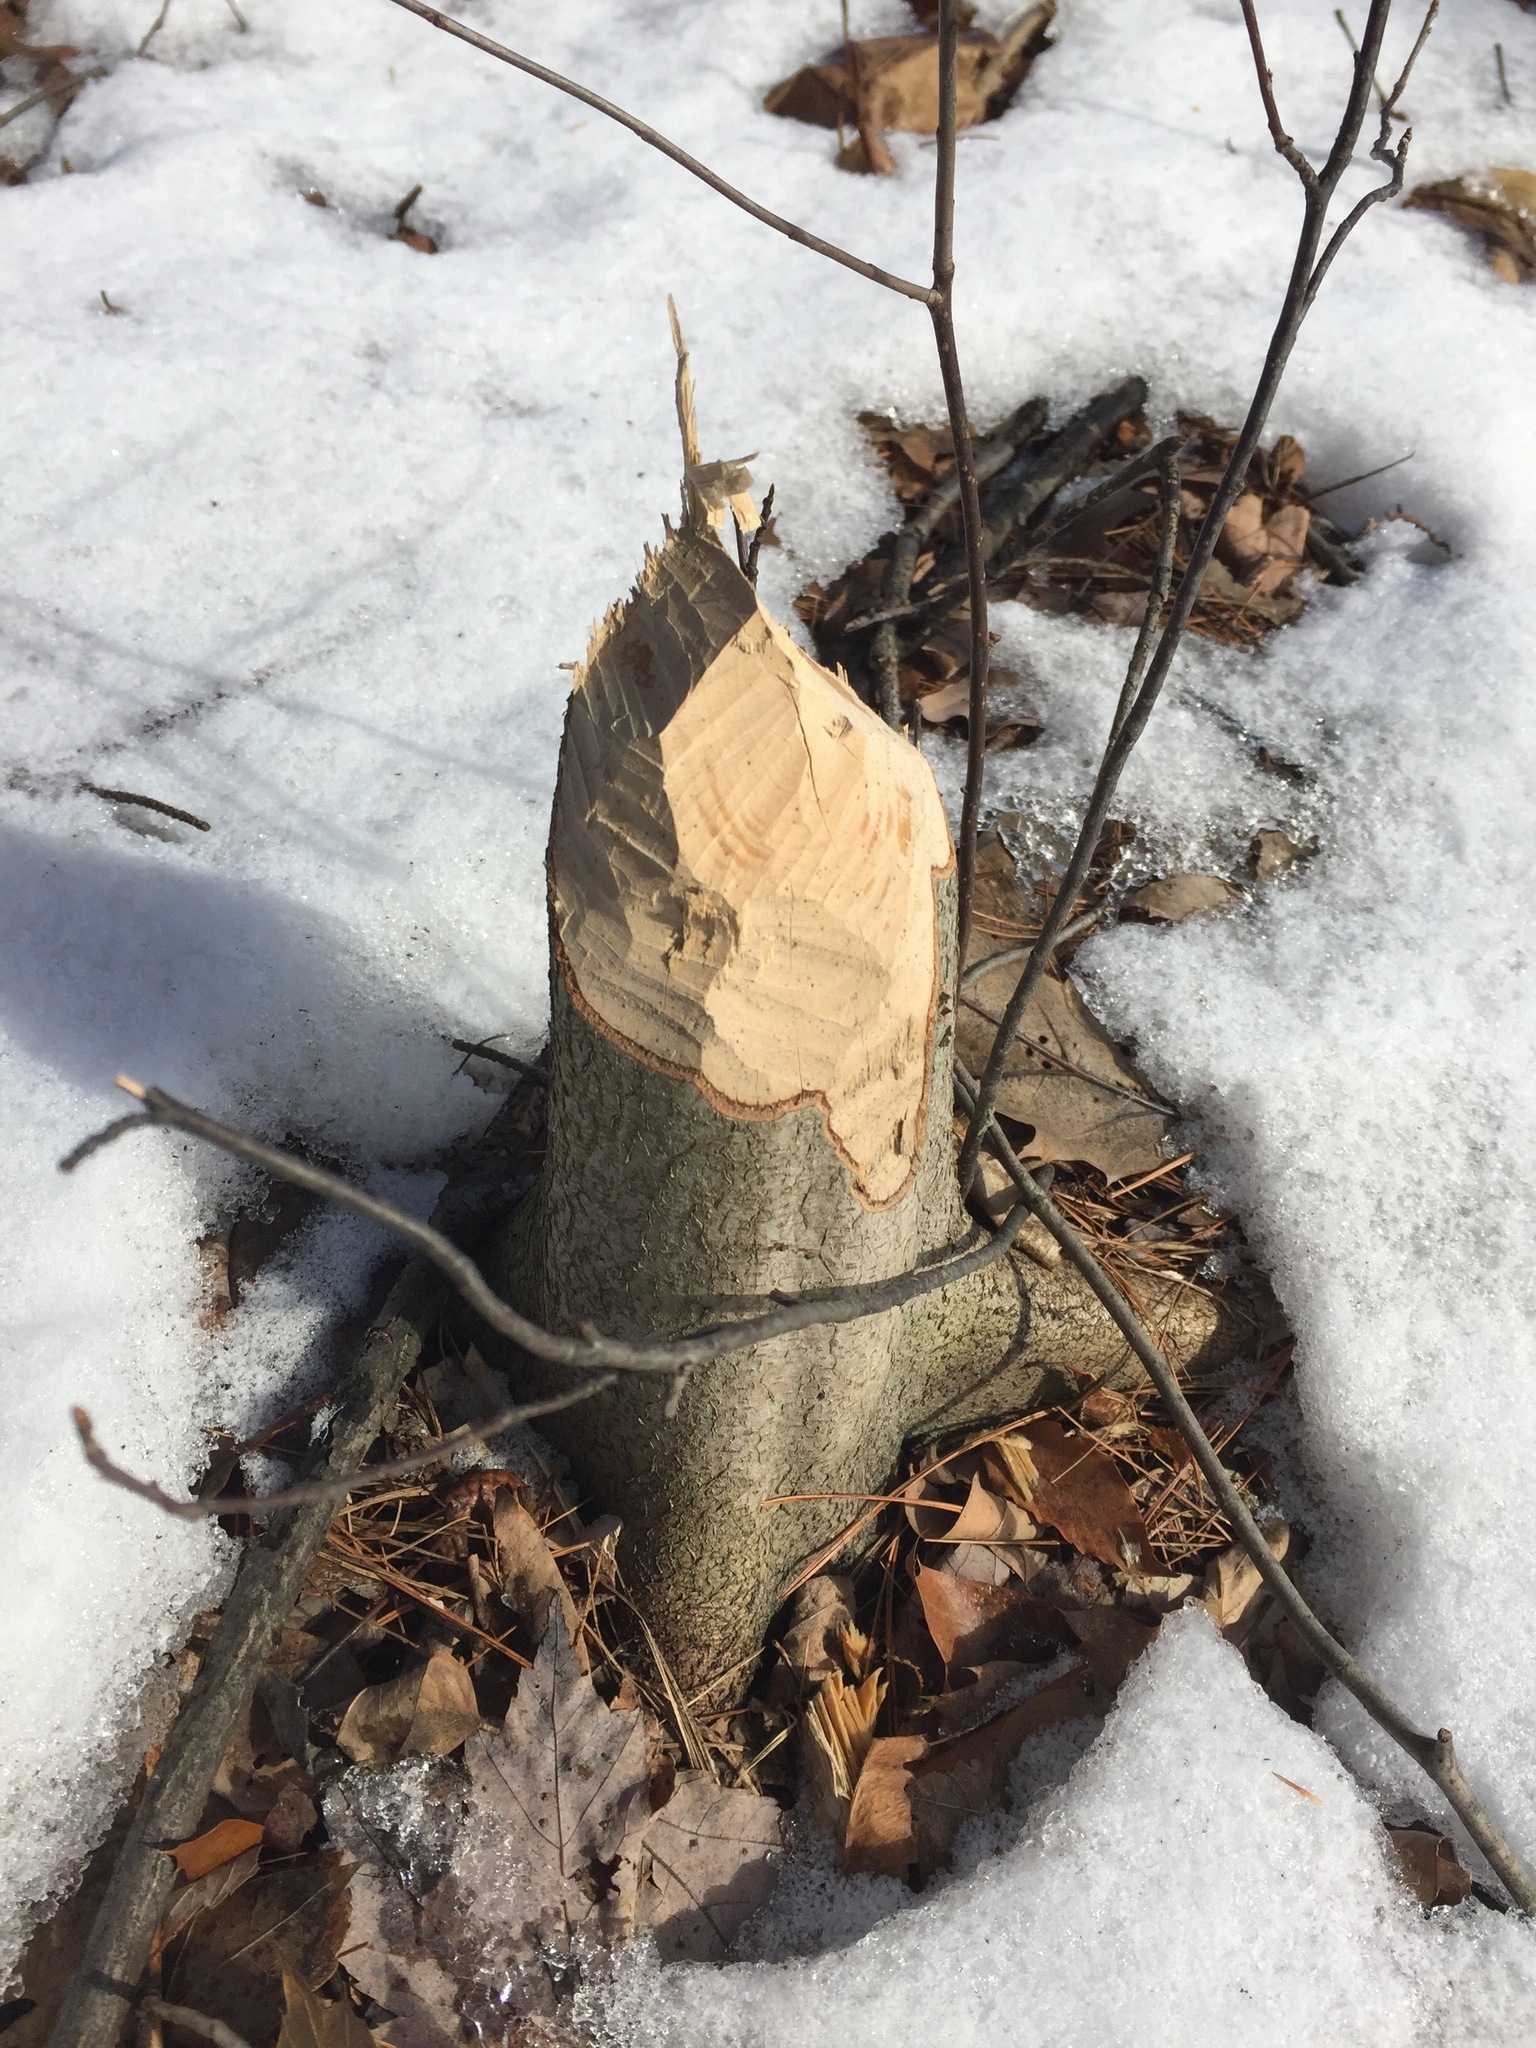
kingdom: Animalia
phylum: Chordata
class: Mammalia
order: Rodentia
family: Castoridae
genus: Castor
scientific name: Castor canadensis
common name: American beaver
